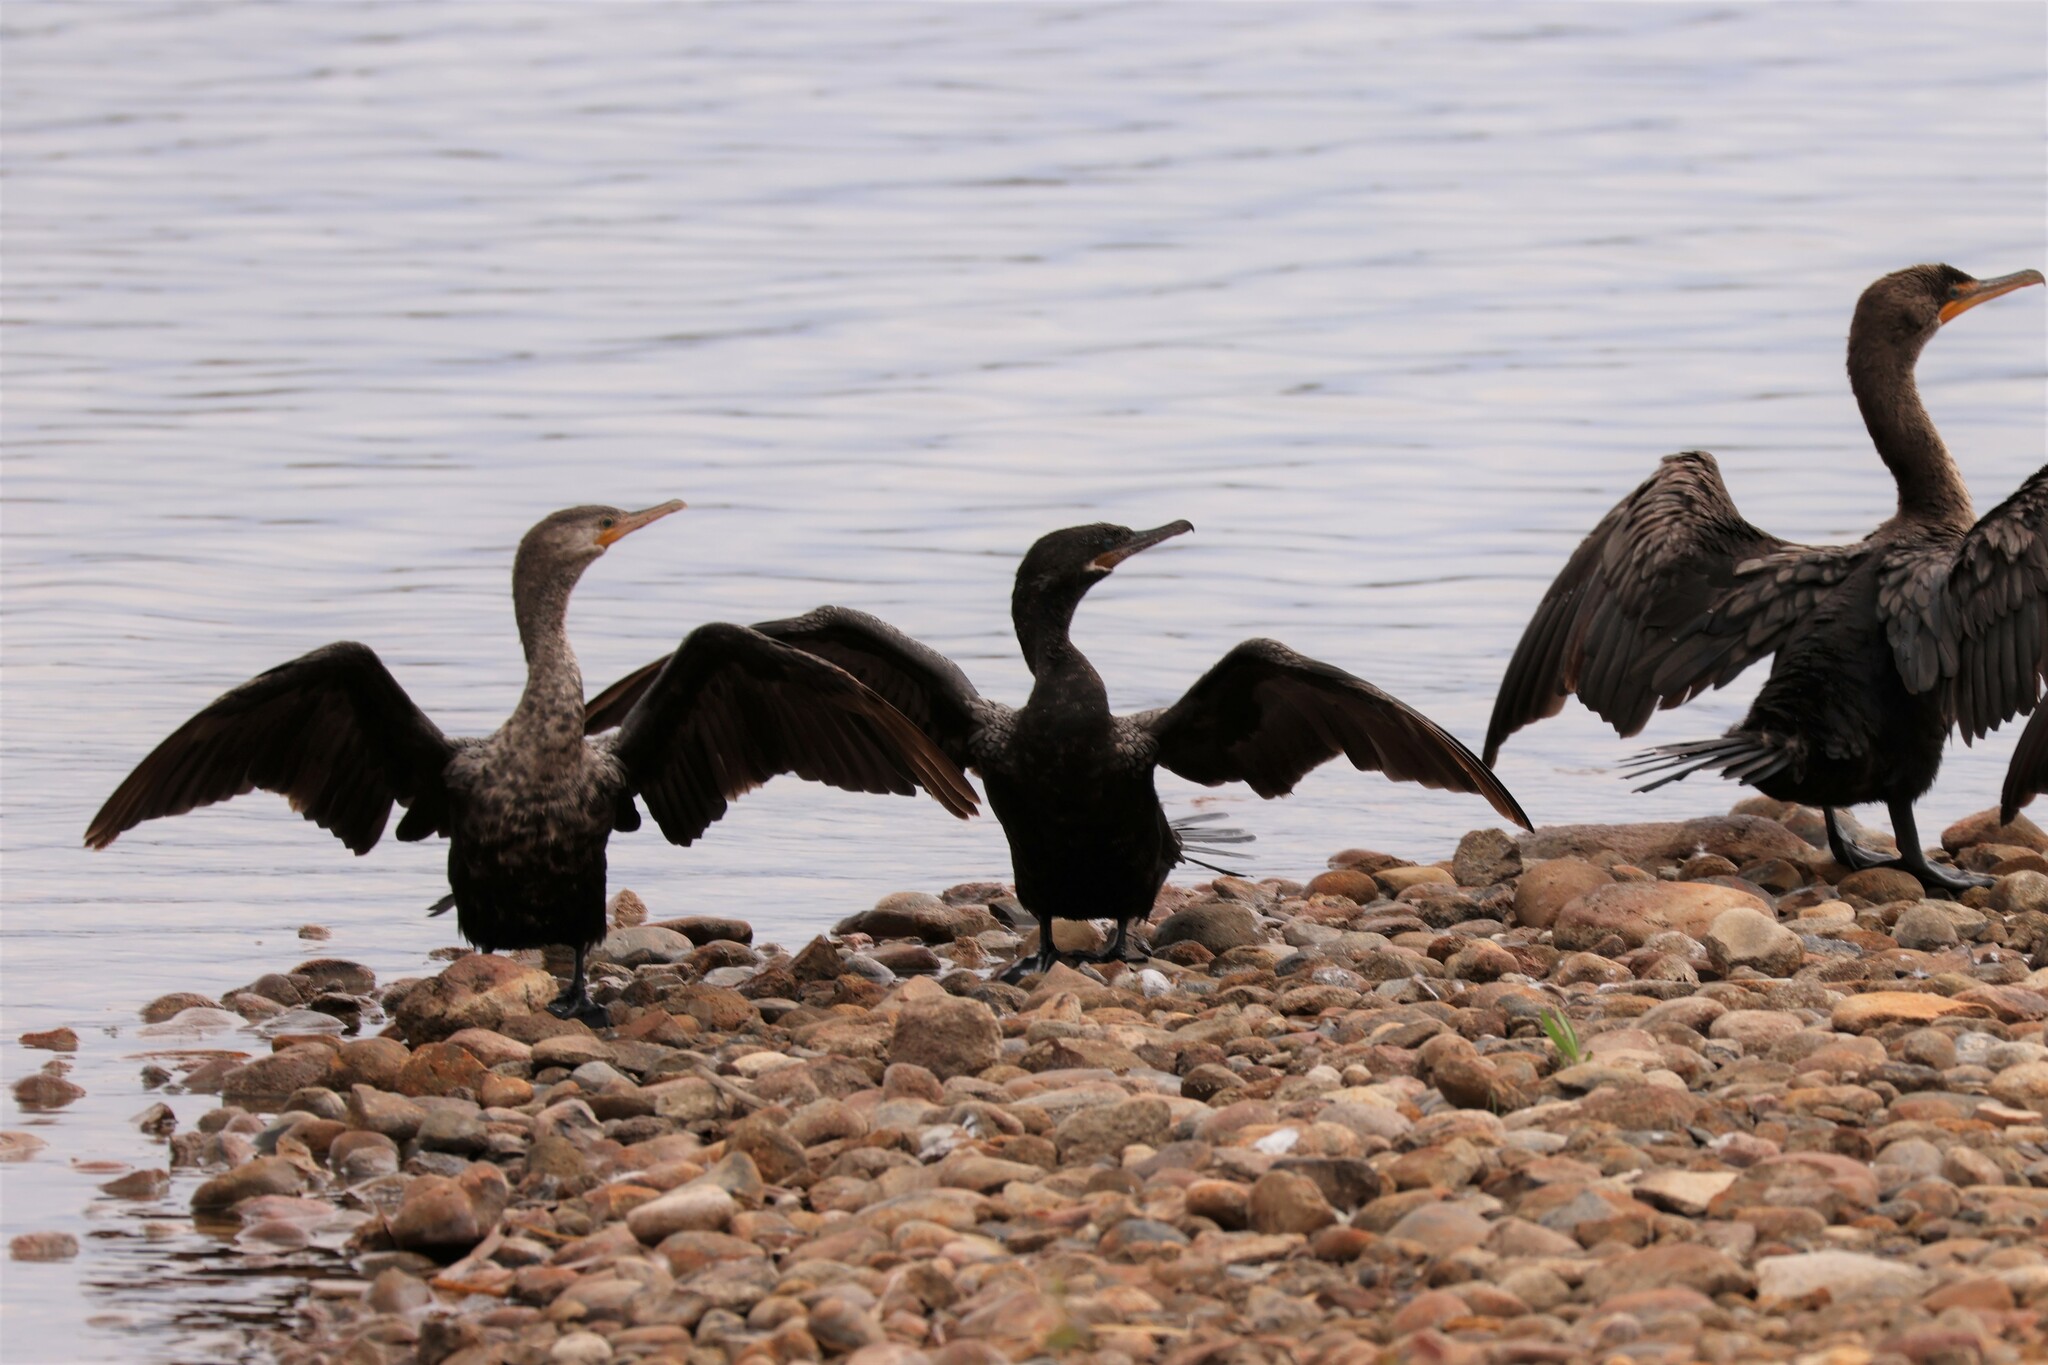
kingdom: Animalia
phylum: Chordata
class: Aves
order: Suliformes
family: Phalacrocoracidae
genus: Phalacrocorax
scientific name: Phalacrocorax brasilianus
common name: Neotropic cormorant
